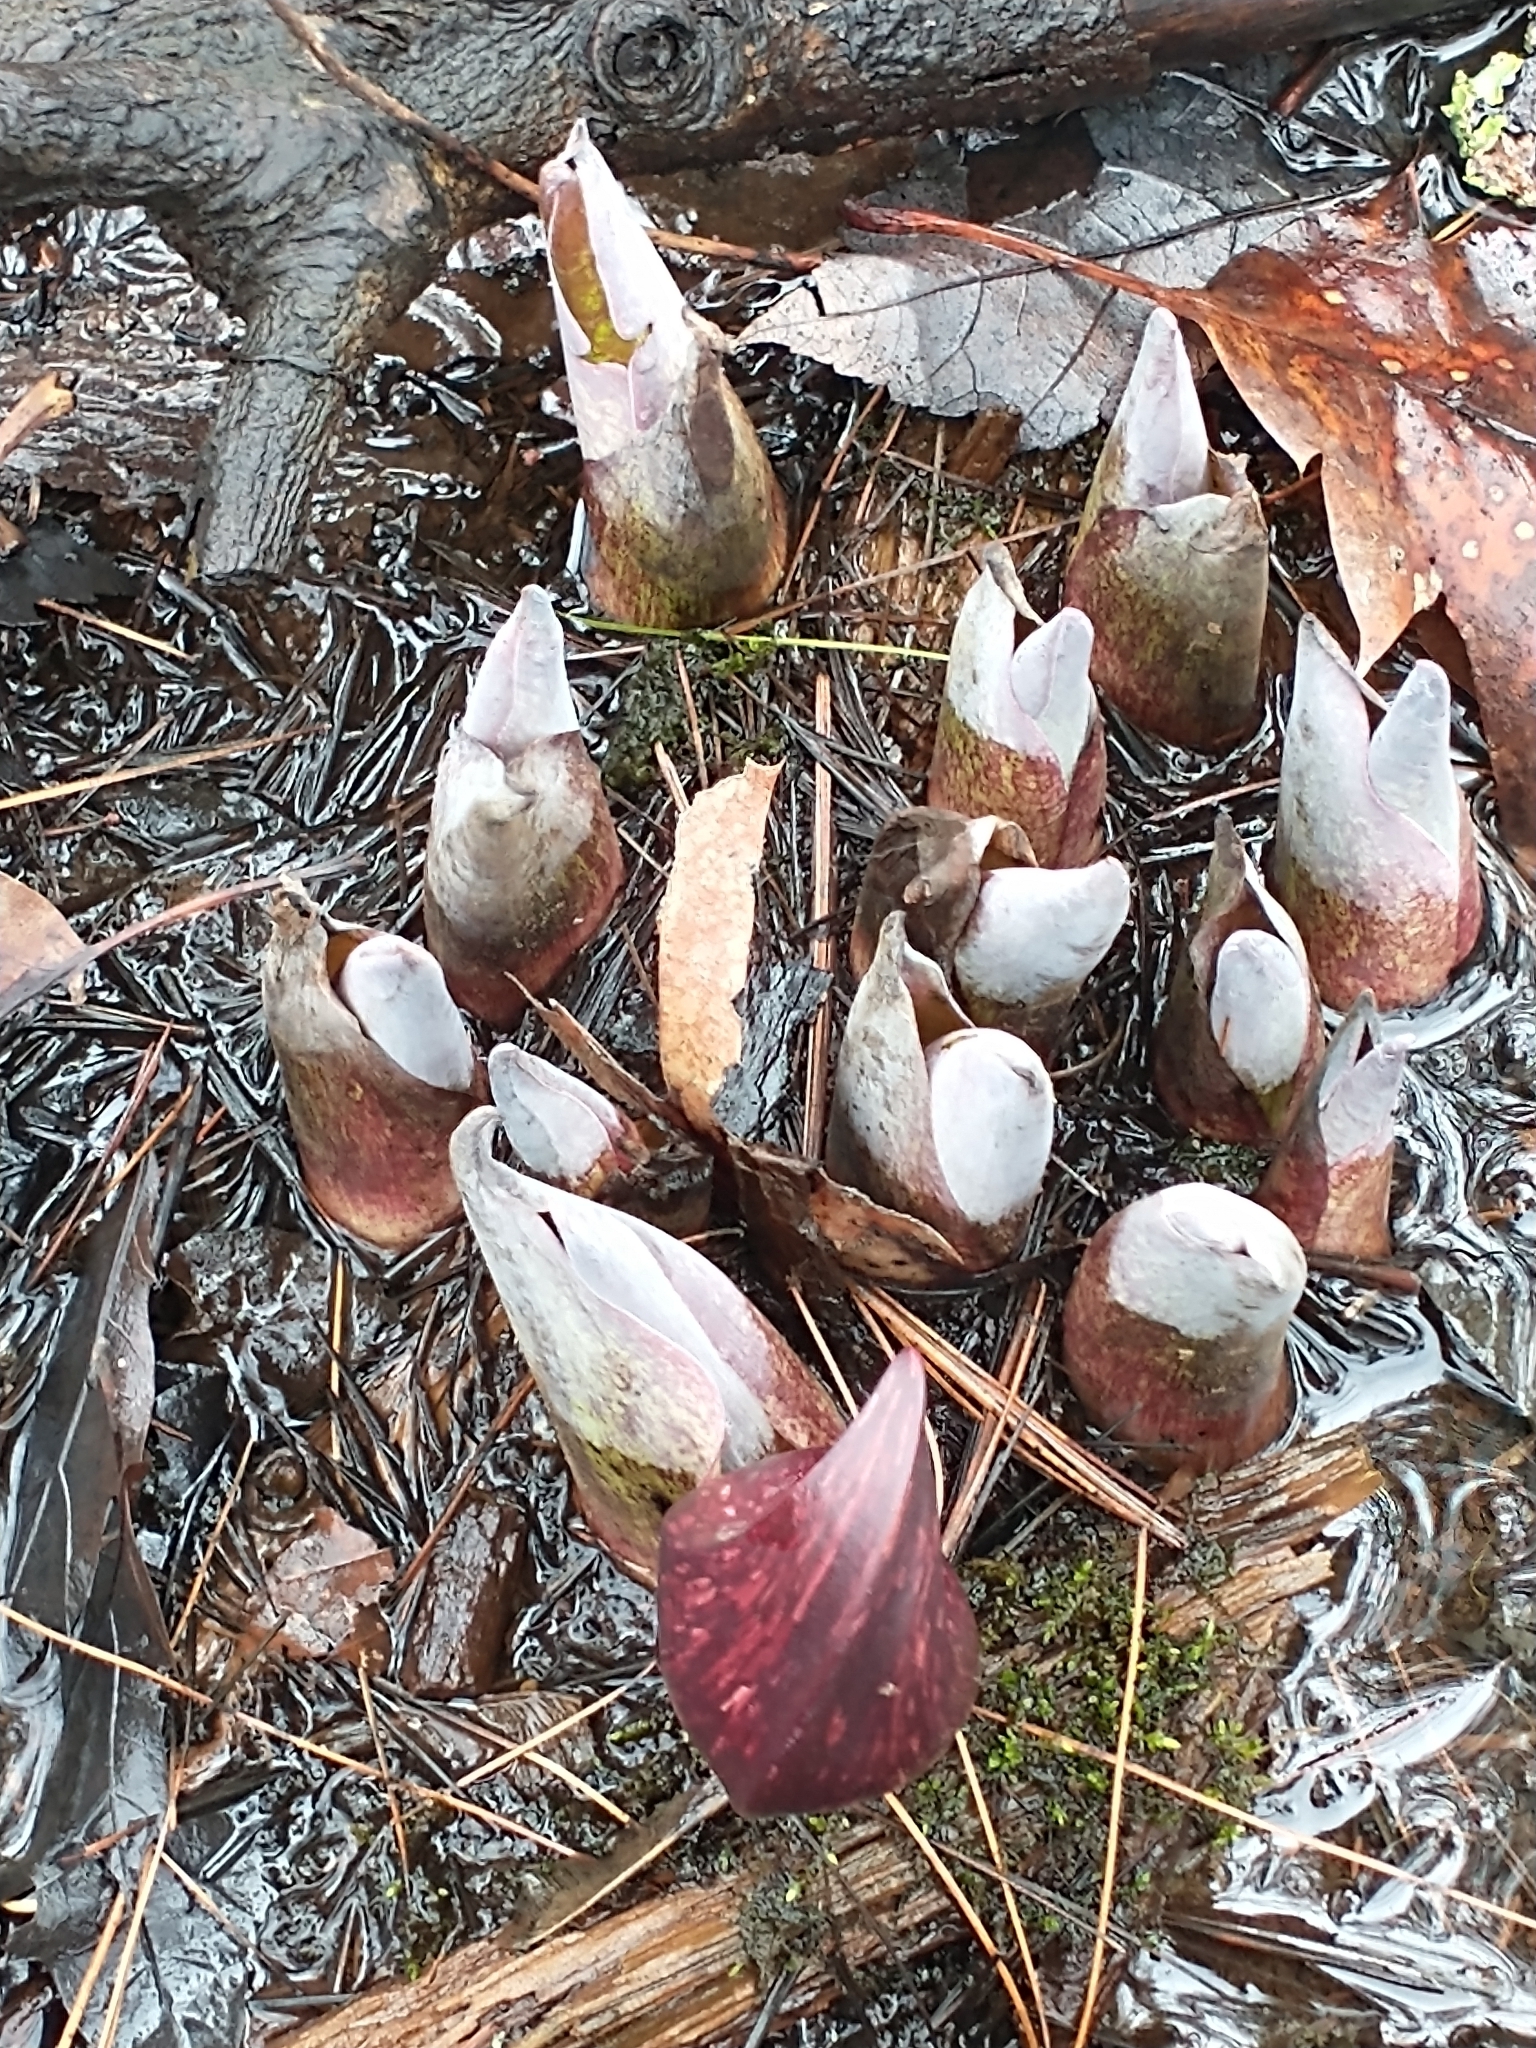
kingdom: Plantae
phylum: Tracheophyta
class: Liliopsida
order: Alismatales
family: Araceae
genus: Symplocarpus
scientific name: Symplocarpus foetidus
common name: Eastern skunk cabbage
